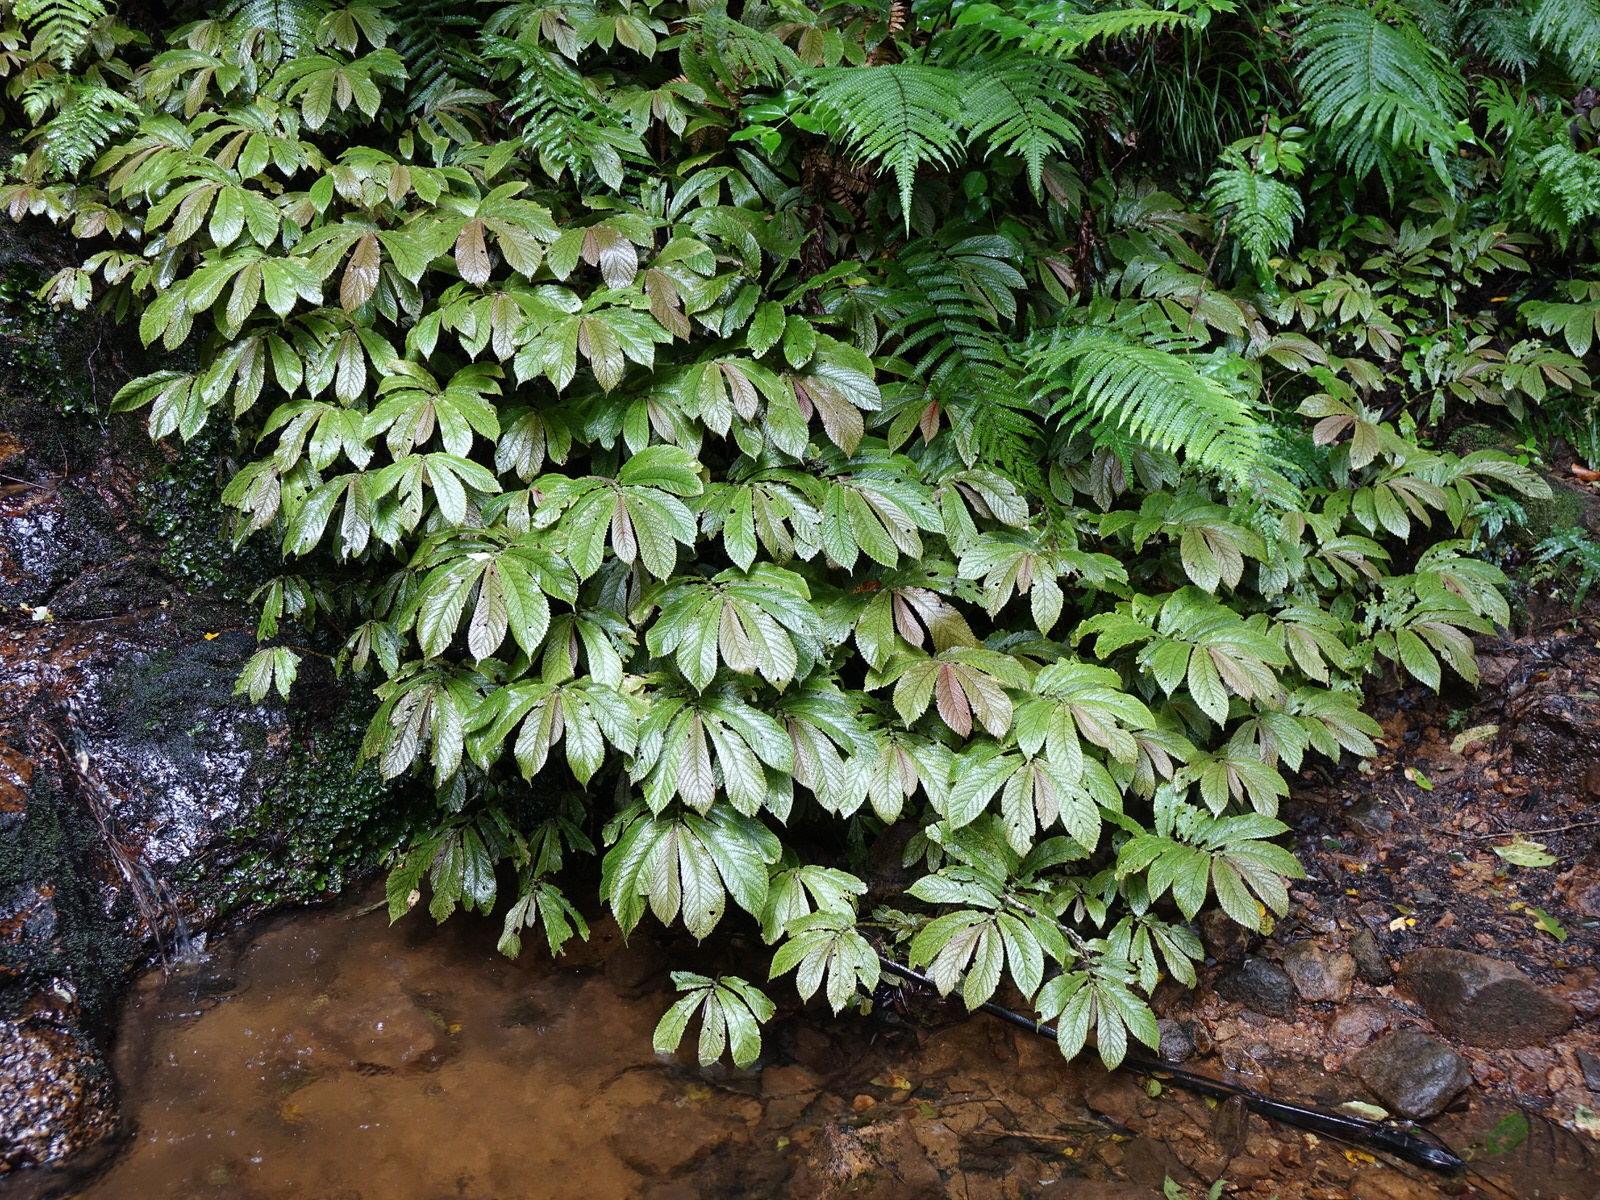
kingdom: Plantae
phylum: Tracheophyta
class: Magnoliopsida
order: Rosales
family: Urticaceae
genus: Elatostema
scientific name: Elatostema rugosum
